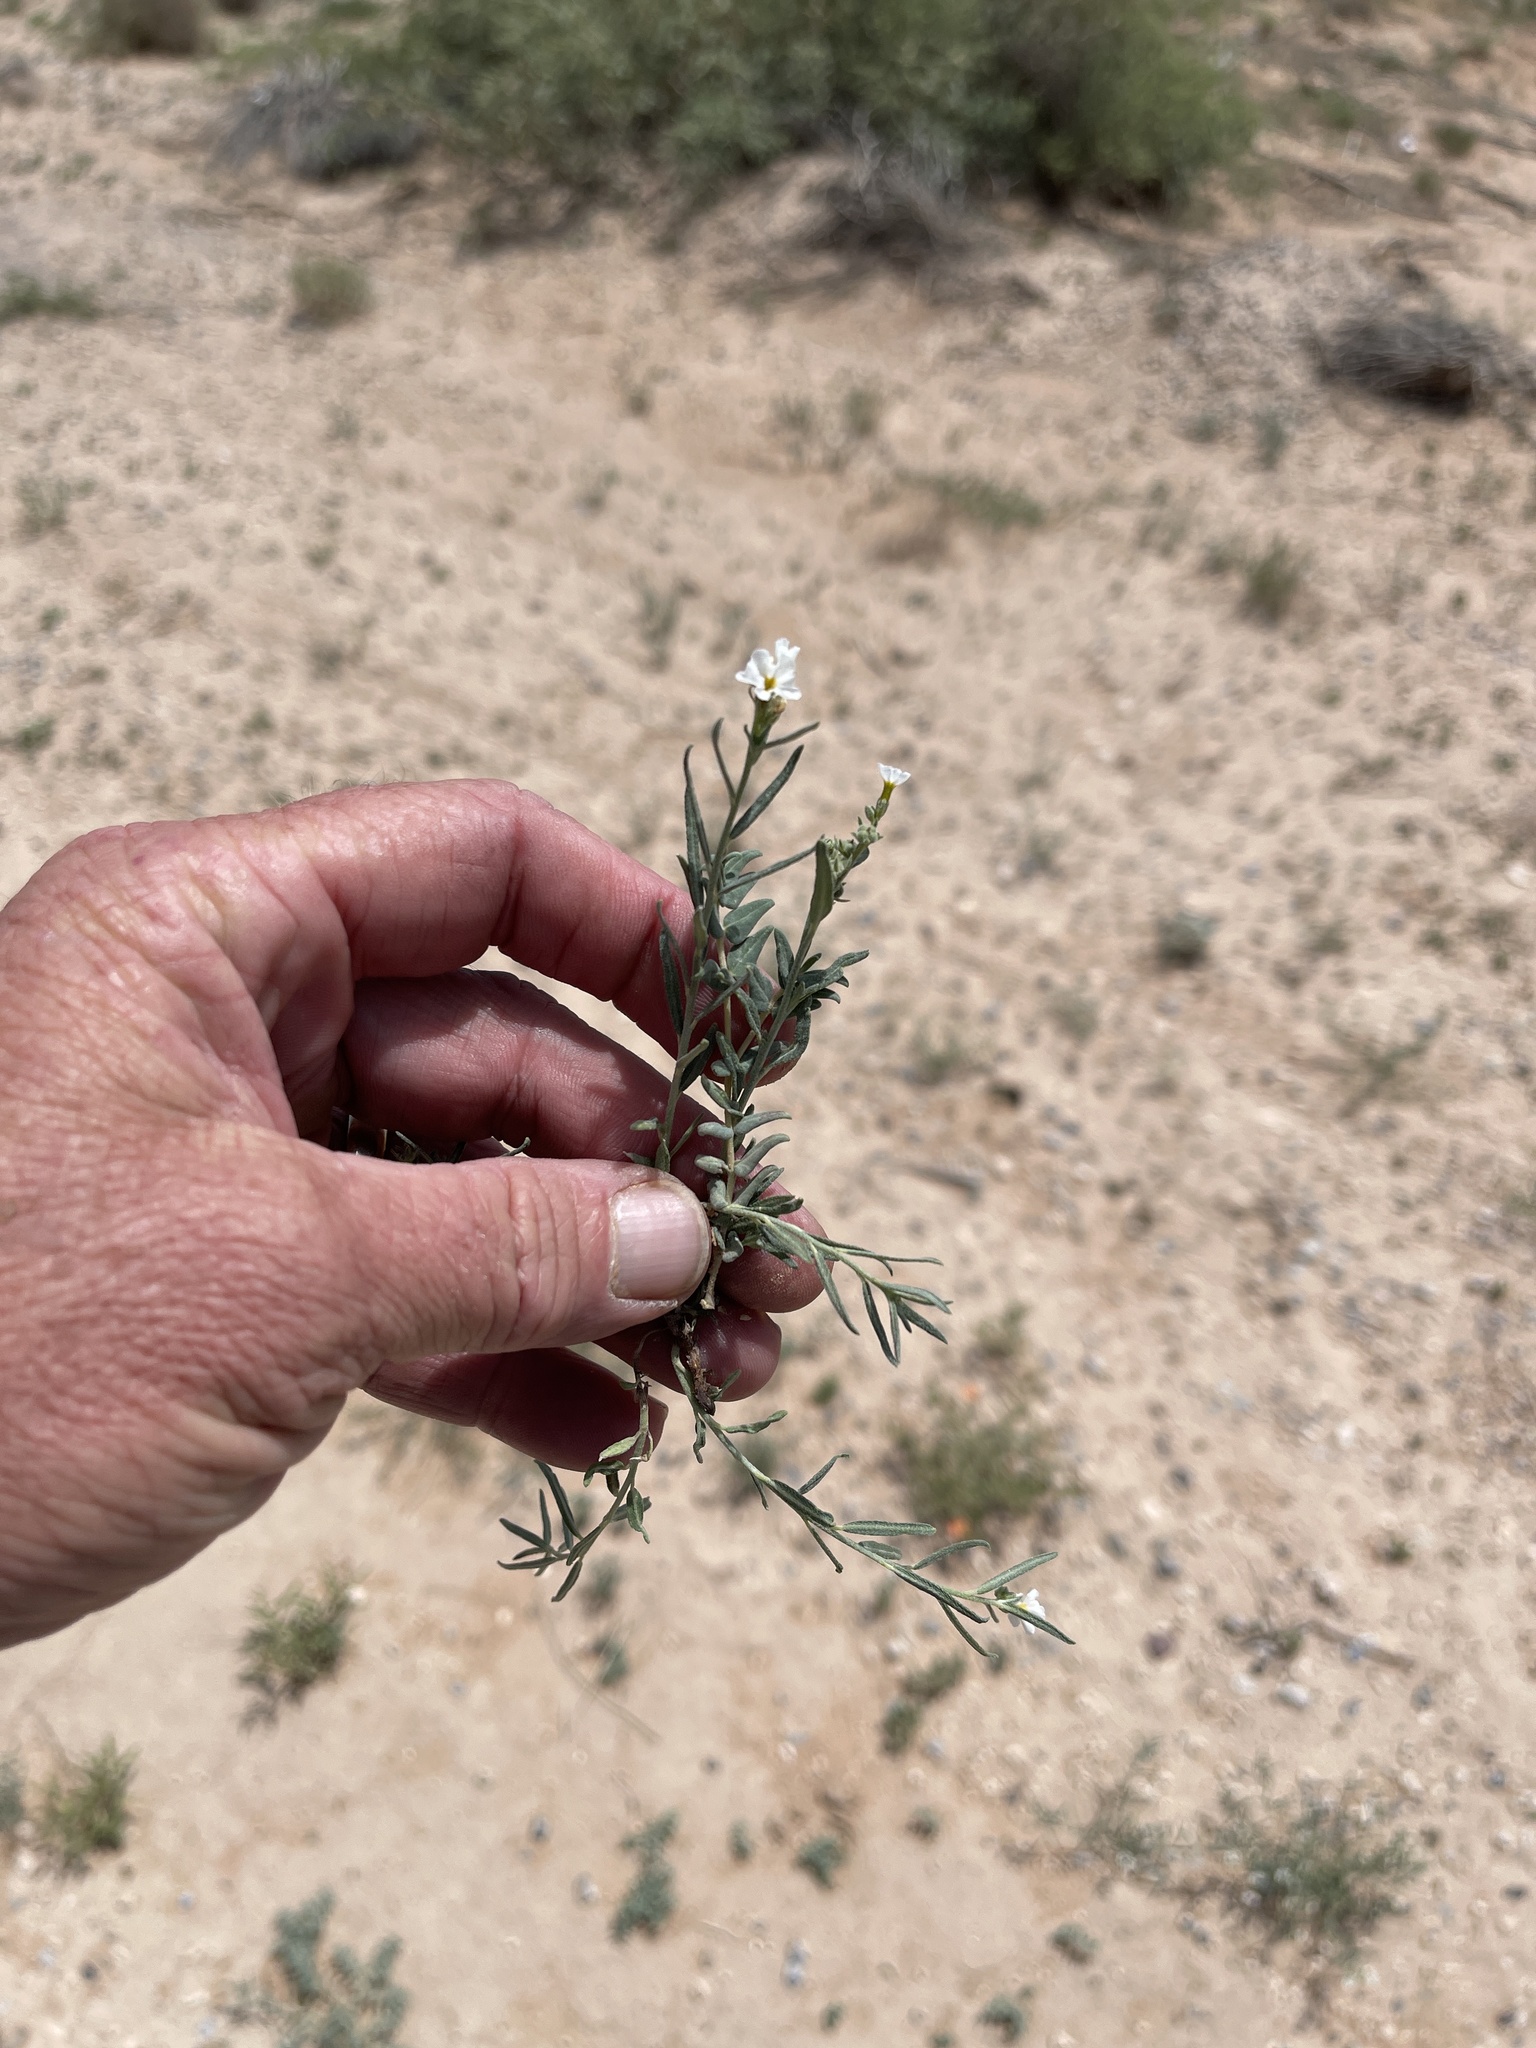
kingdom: Plantae
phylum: Tracheophyta
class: Magnoliopsida
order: Boraginales
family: Heliotropiaceae
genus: Euploca
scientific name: Euploca greggii
